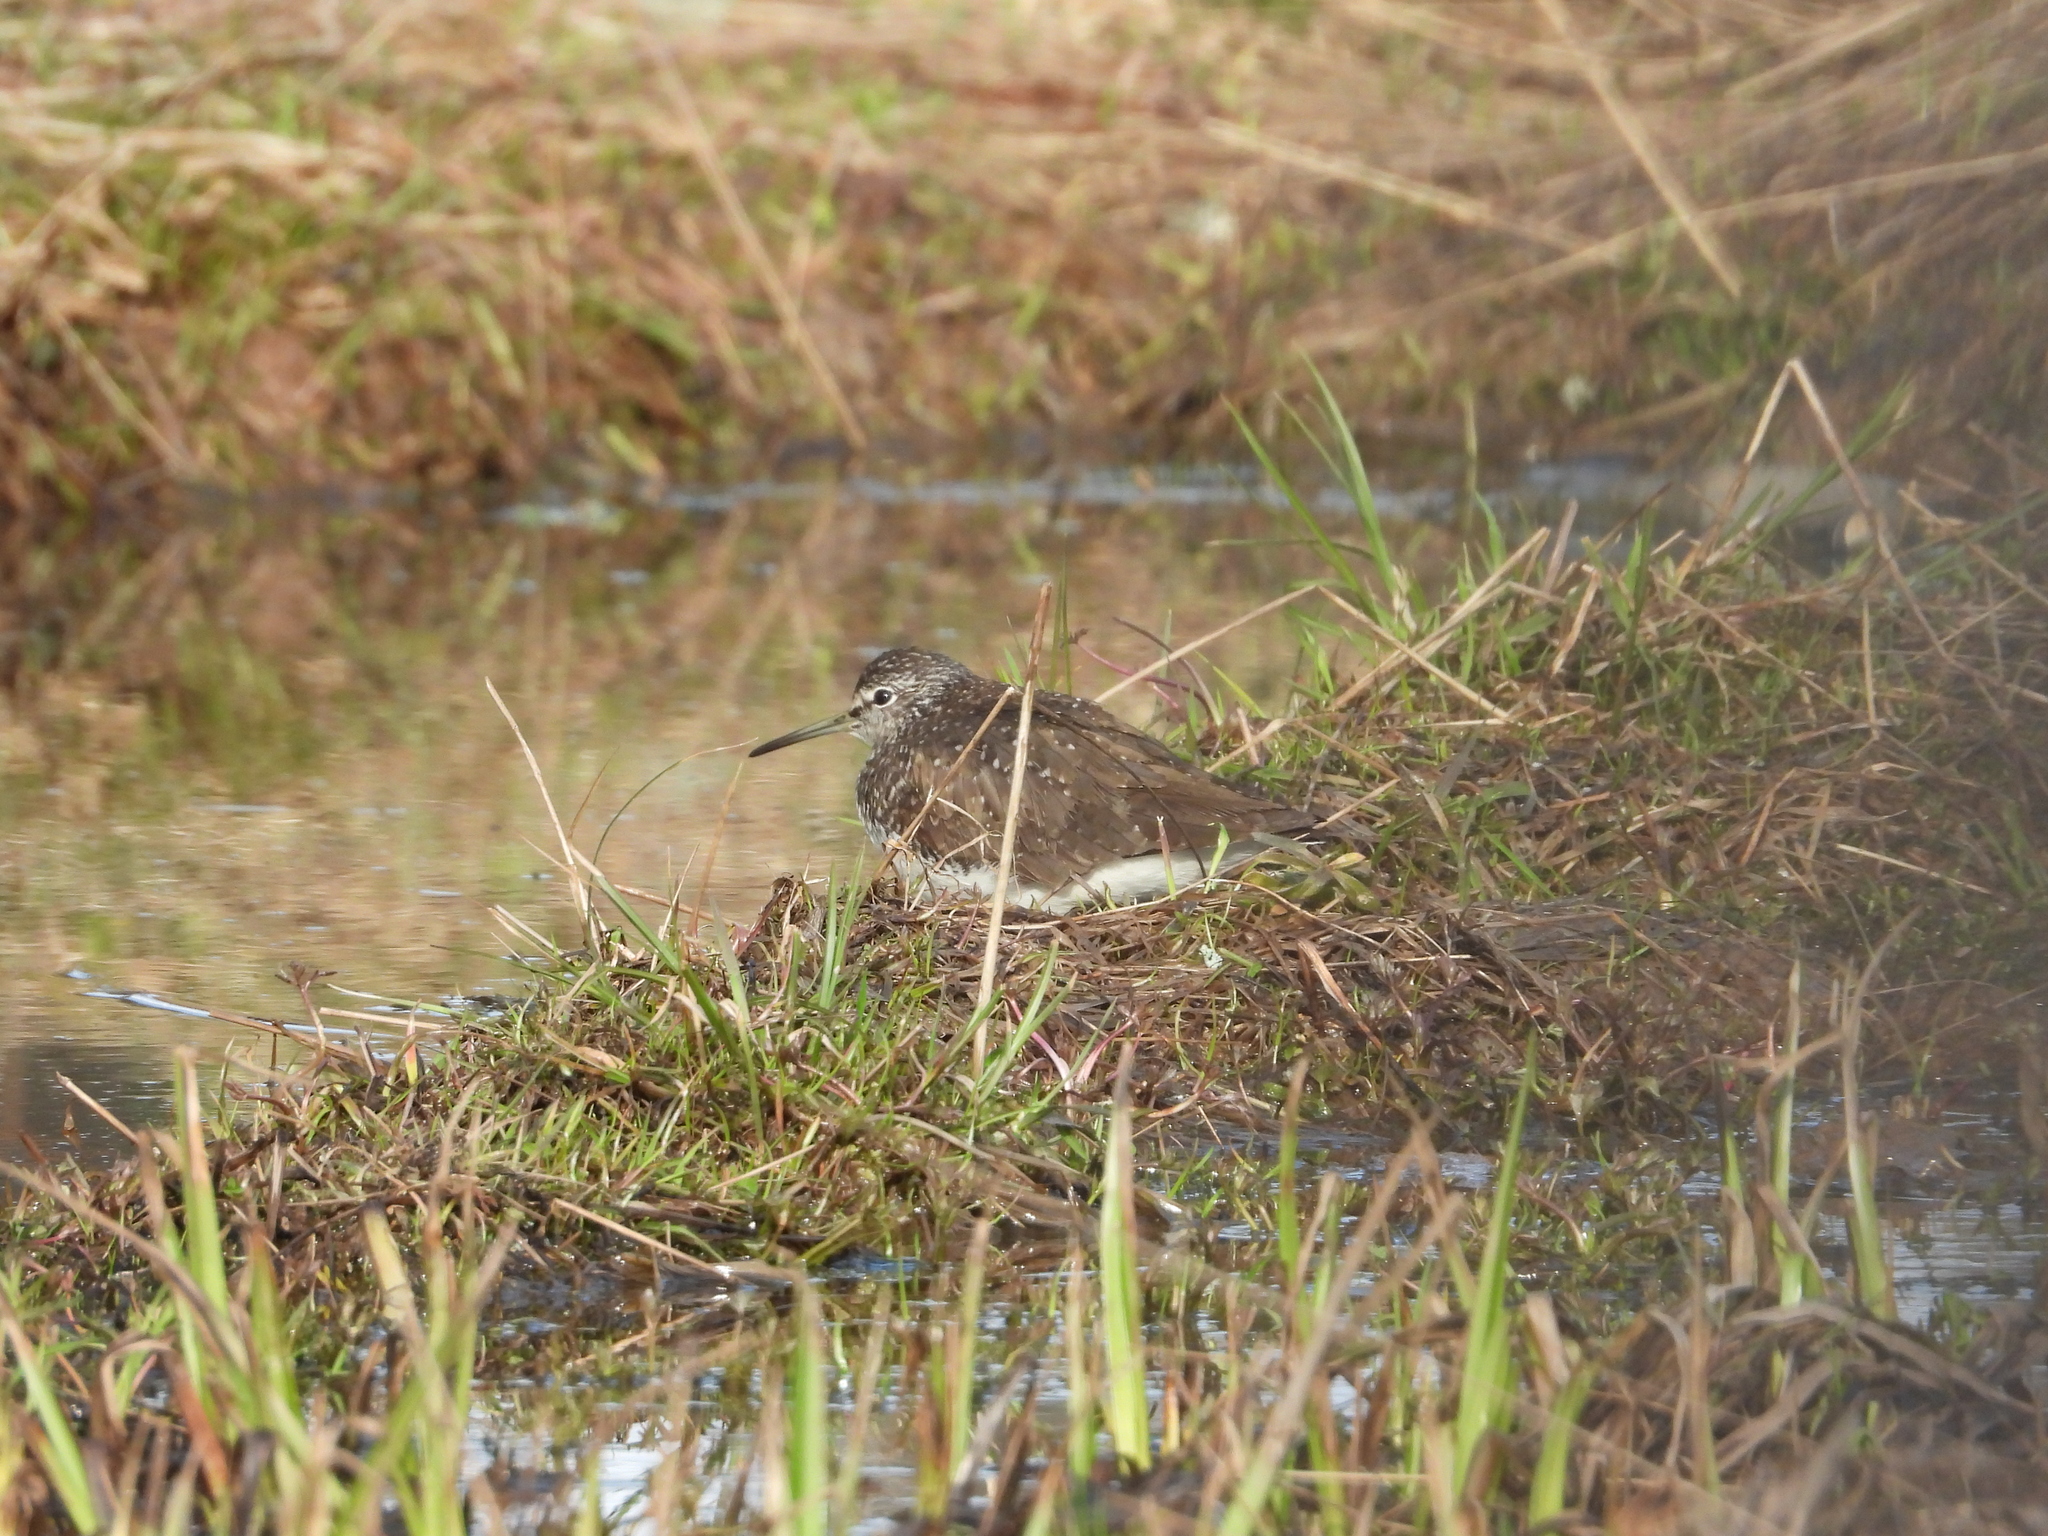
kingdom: Animalia
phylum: Chordata
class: Aves
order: Charadriiformes
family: Scolopacidae
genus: Tringa
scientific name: Tringa ochropus
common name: Green sandpiper
